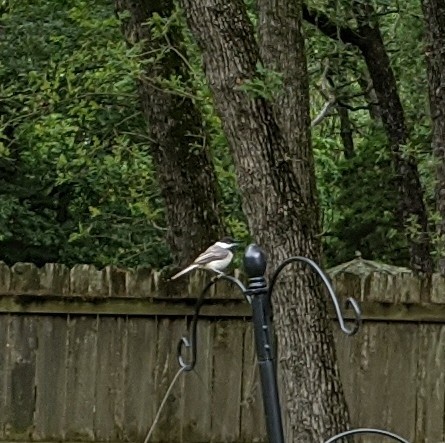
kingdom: Animalia
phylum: Chordata
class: Aves
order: Passeriformes
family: Paridae
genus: Poecile
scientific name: Poecile carolinensis
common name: Carolina chickadee
